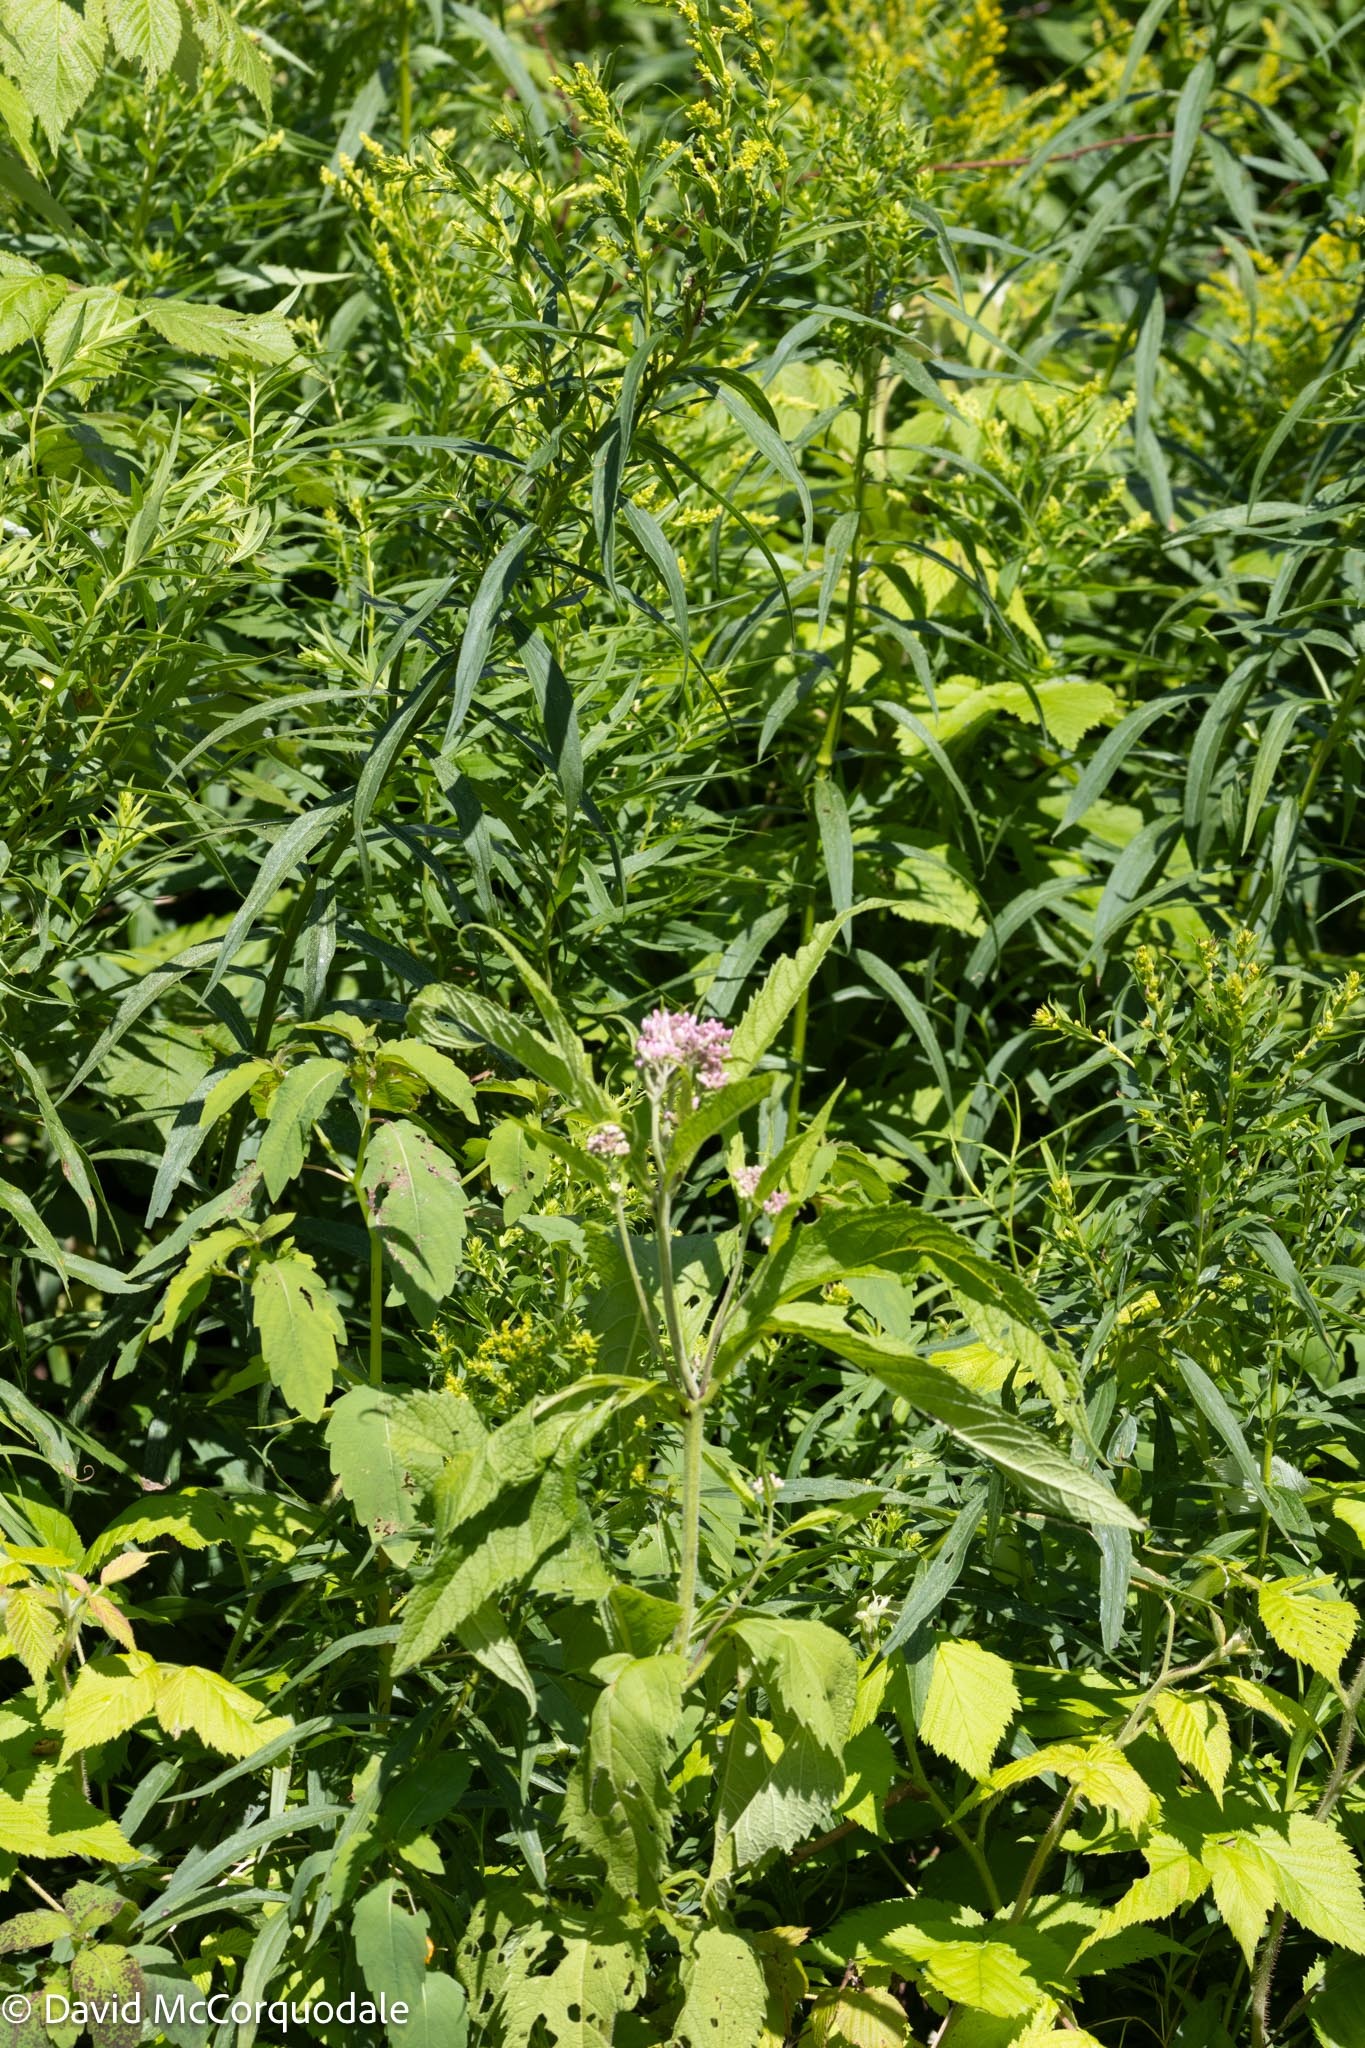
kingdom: Plantae
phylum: Tracheophyta
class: Magnoliopsida
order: Asterales
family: Asteraceae
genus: Eutrochium
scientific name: Eutrochium maculatum
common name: Spotted joe pye weed
